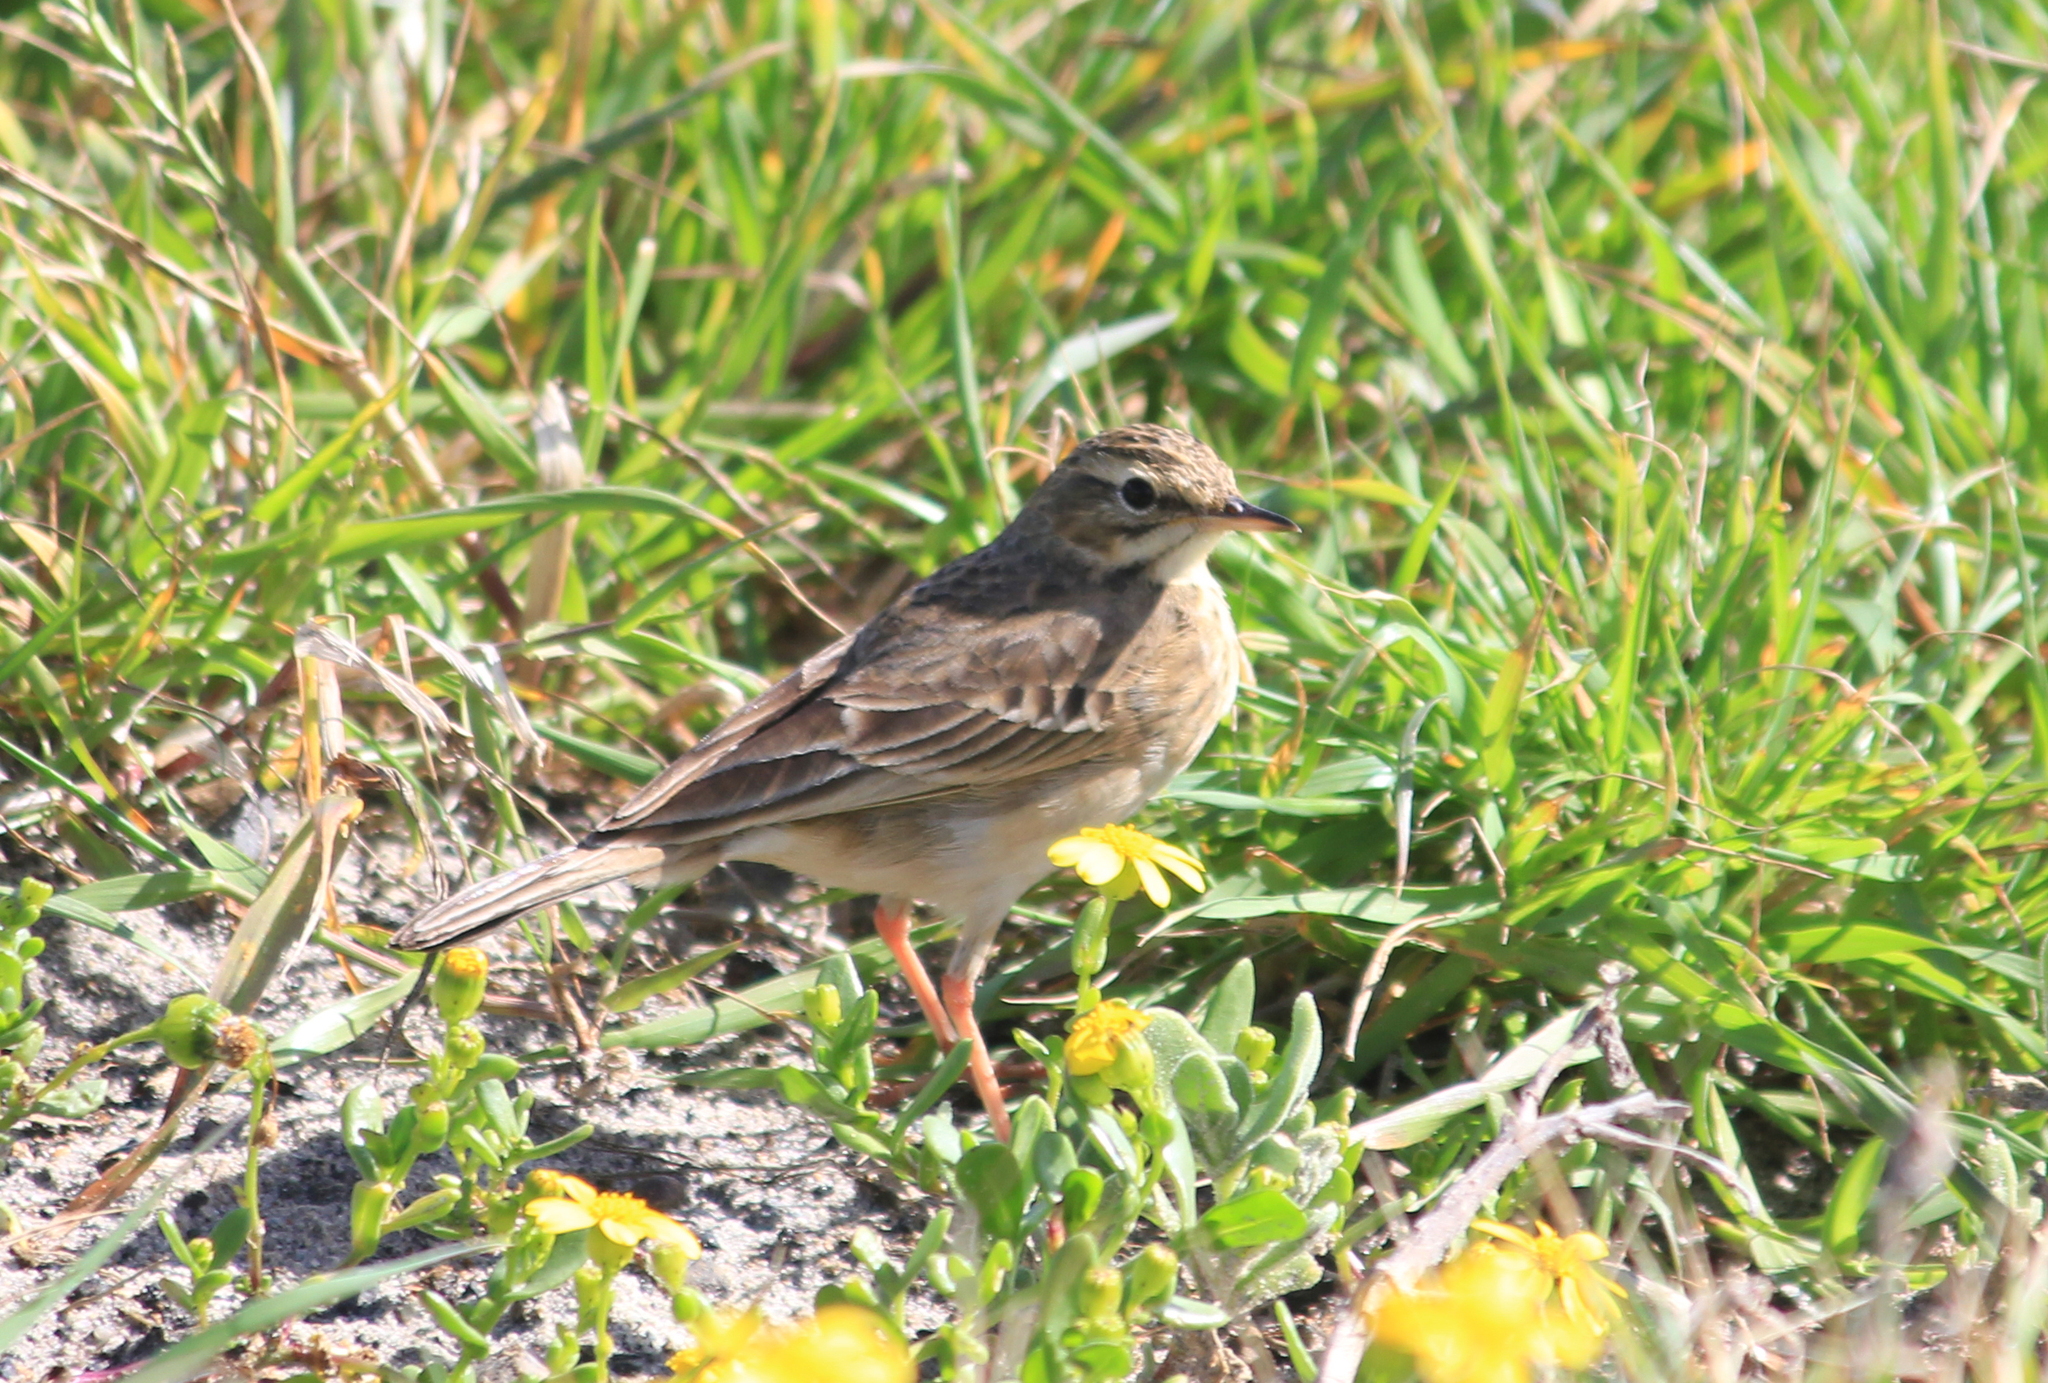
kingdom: Animalia
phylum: Chordata
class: Aves
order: Passeriformes
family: Motacillidae
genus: Anthus
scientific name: Anthus cinnamomeus
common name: African pipit
